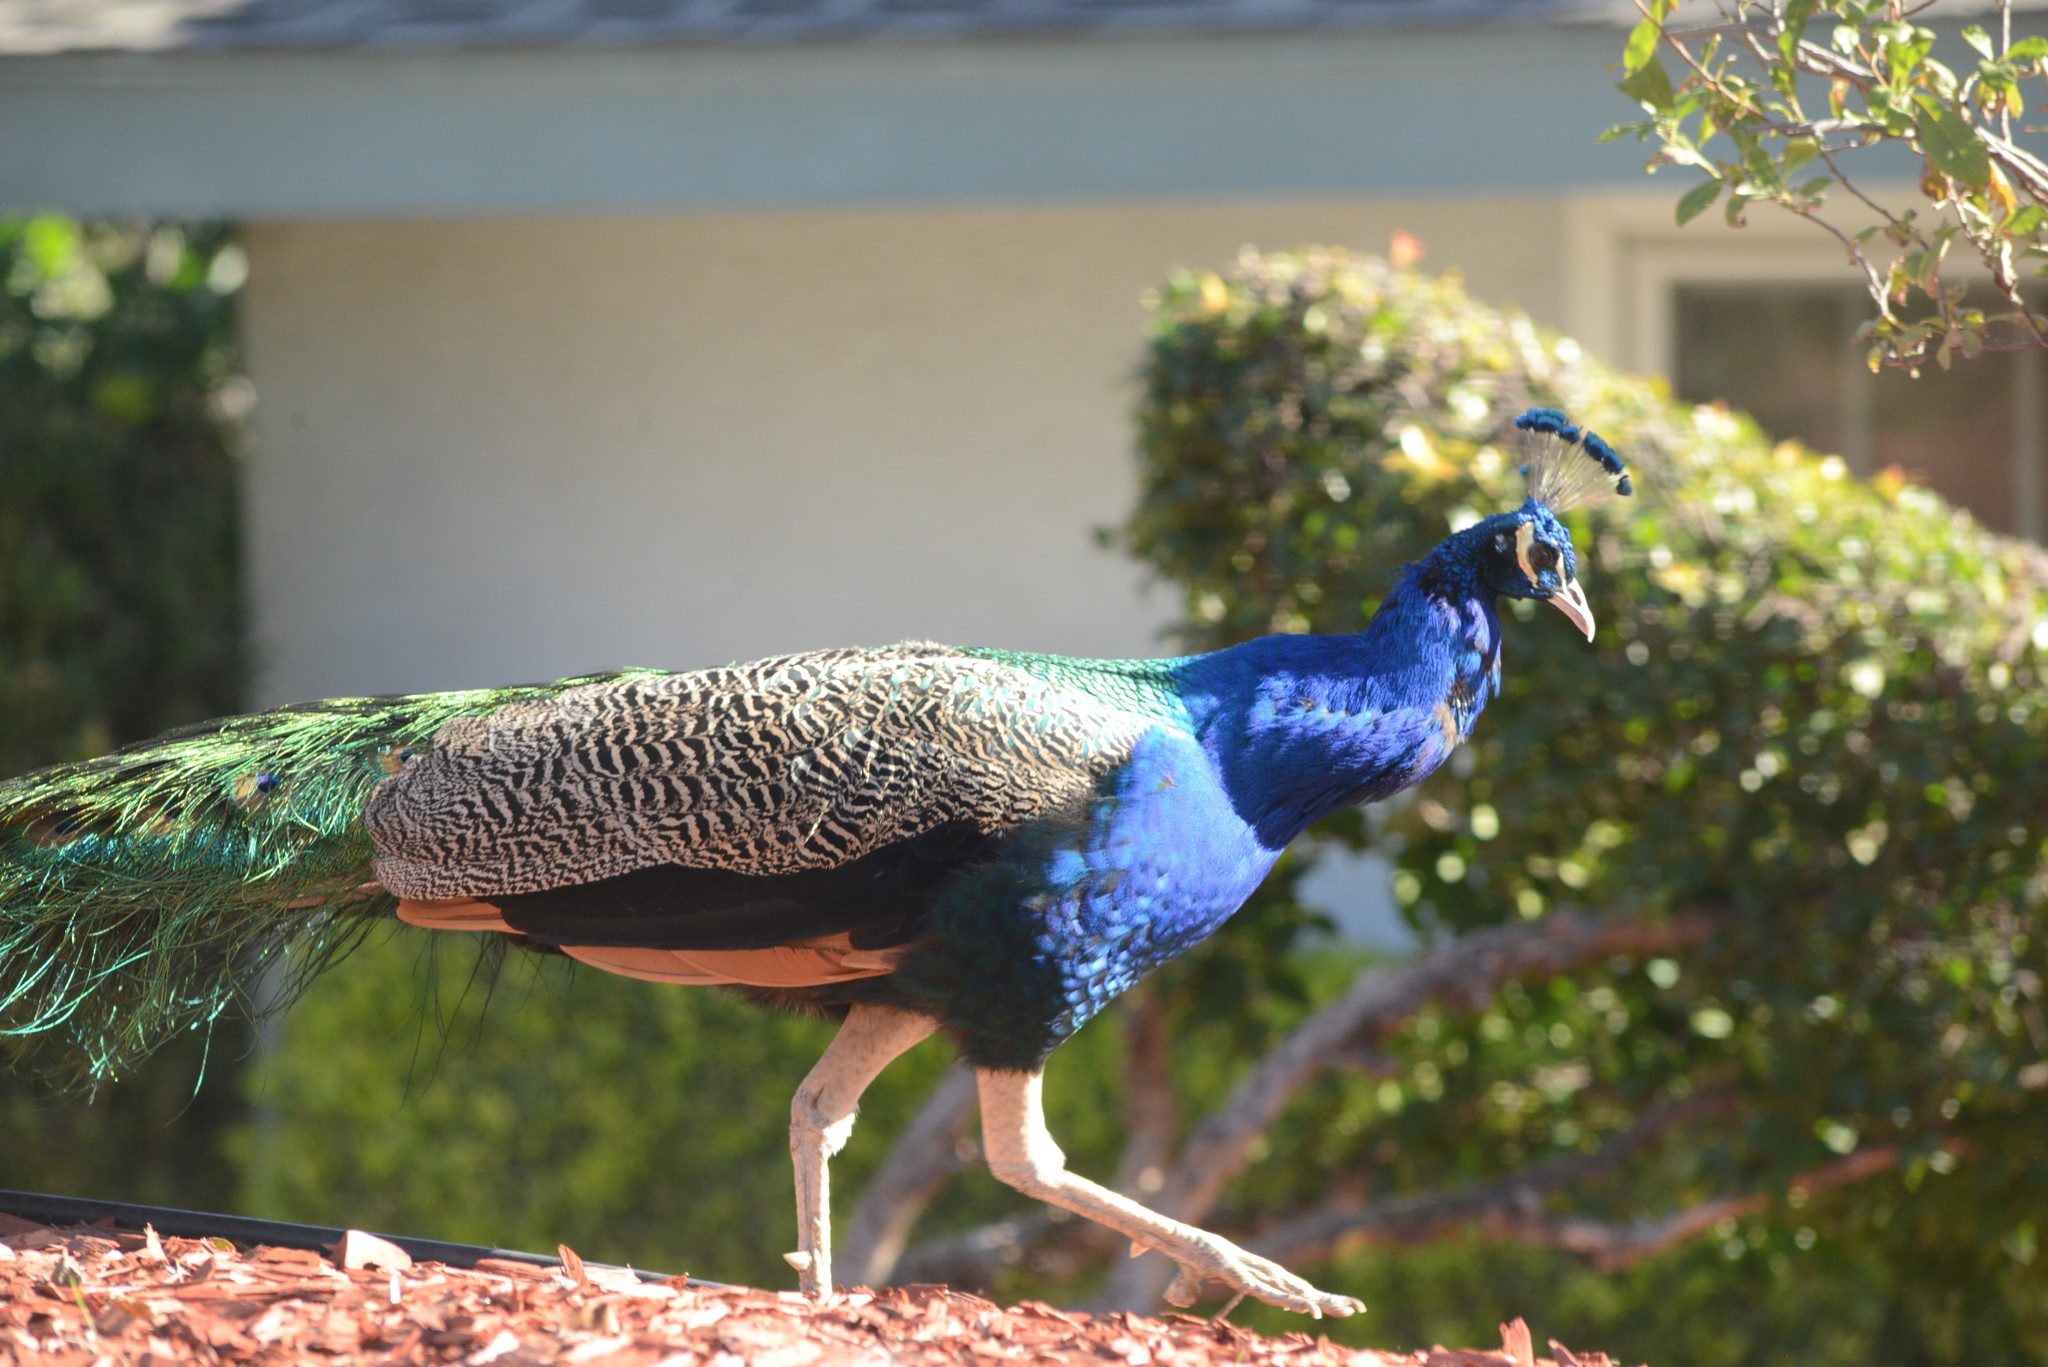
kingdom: Animalia
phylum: Chordata
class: Aves
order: Galliformes
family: Phasianidae
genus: Pavo
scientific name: Pavo cristatus
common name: Indian peafowl
